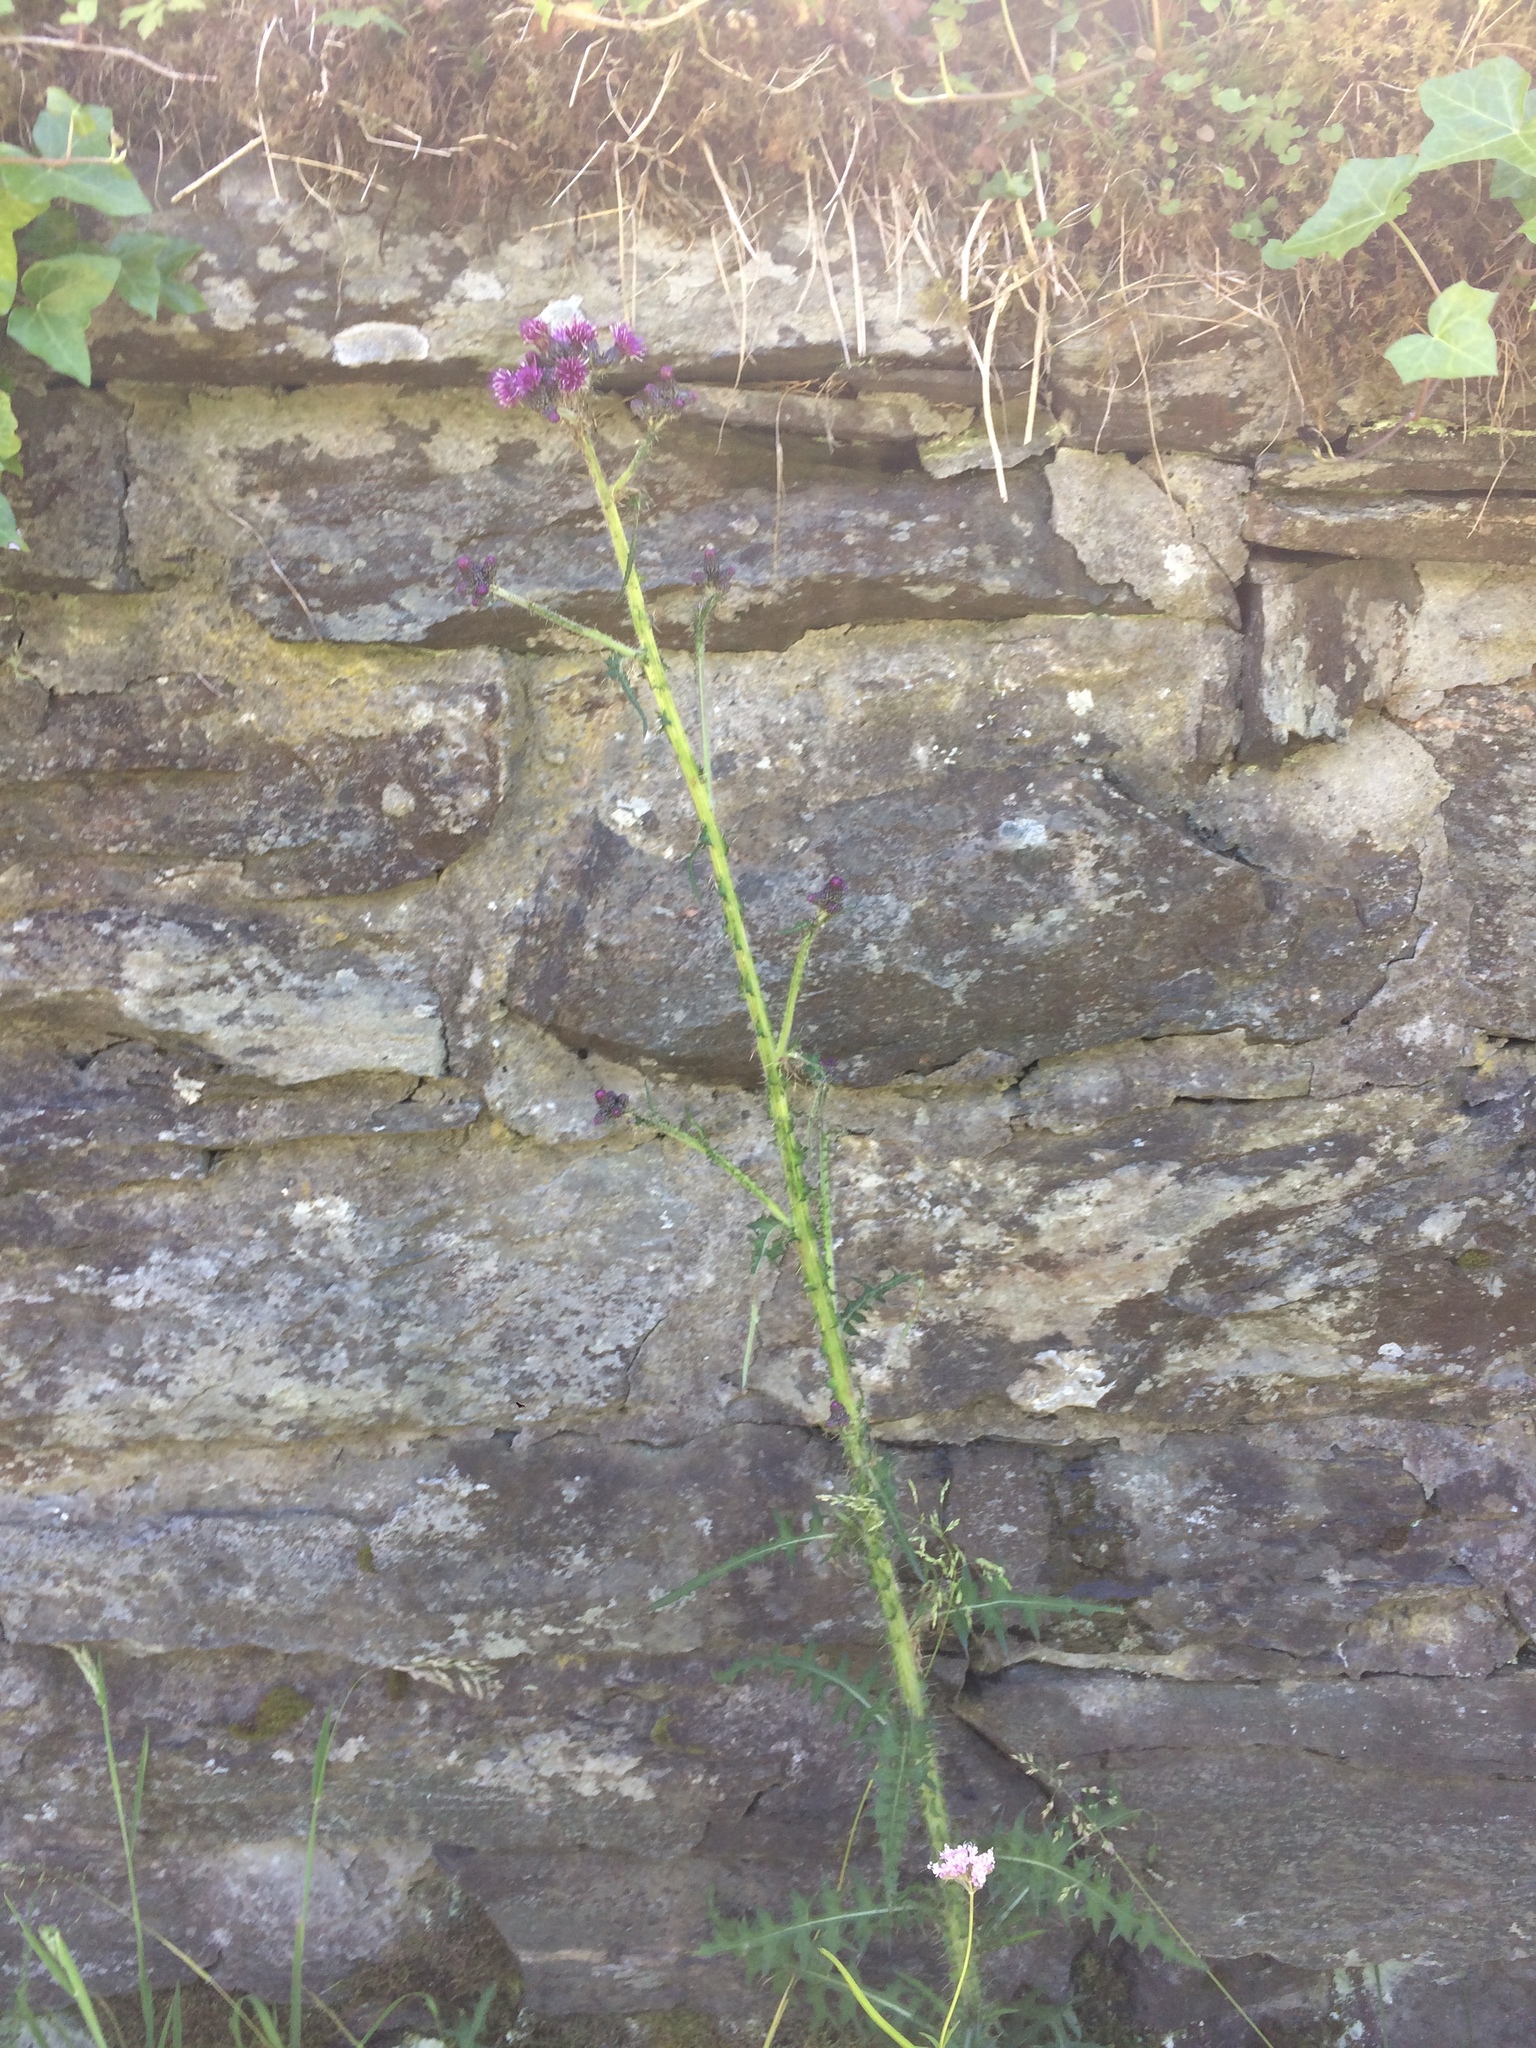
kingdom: Plantae
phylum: Tracheophyta
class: Magnoliopsida
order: Asterales
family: Asteraceae
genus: Cirsium
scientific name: Cirsium palustre
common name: Marsh thistle
